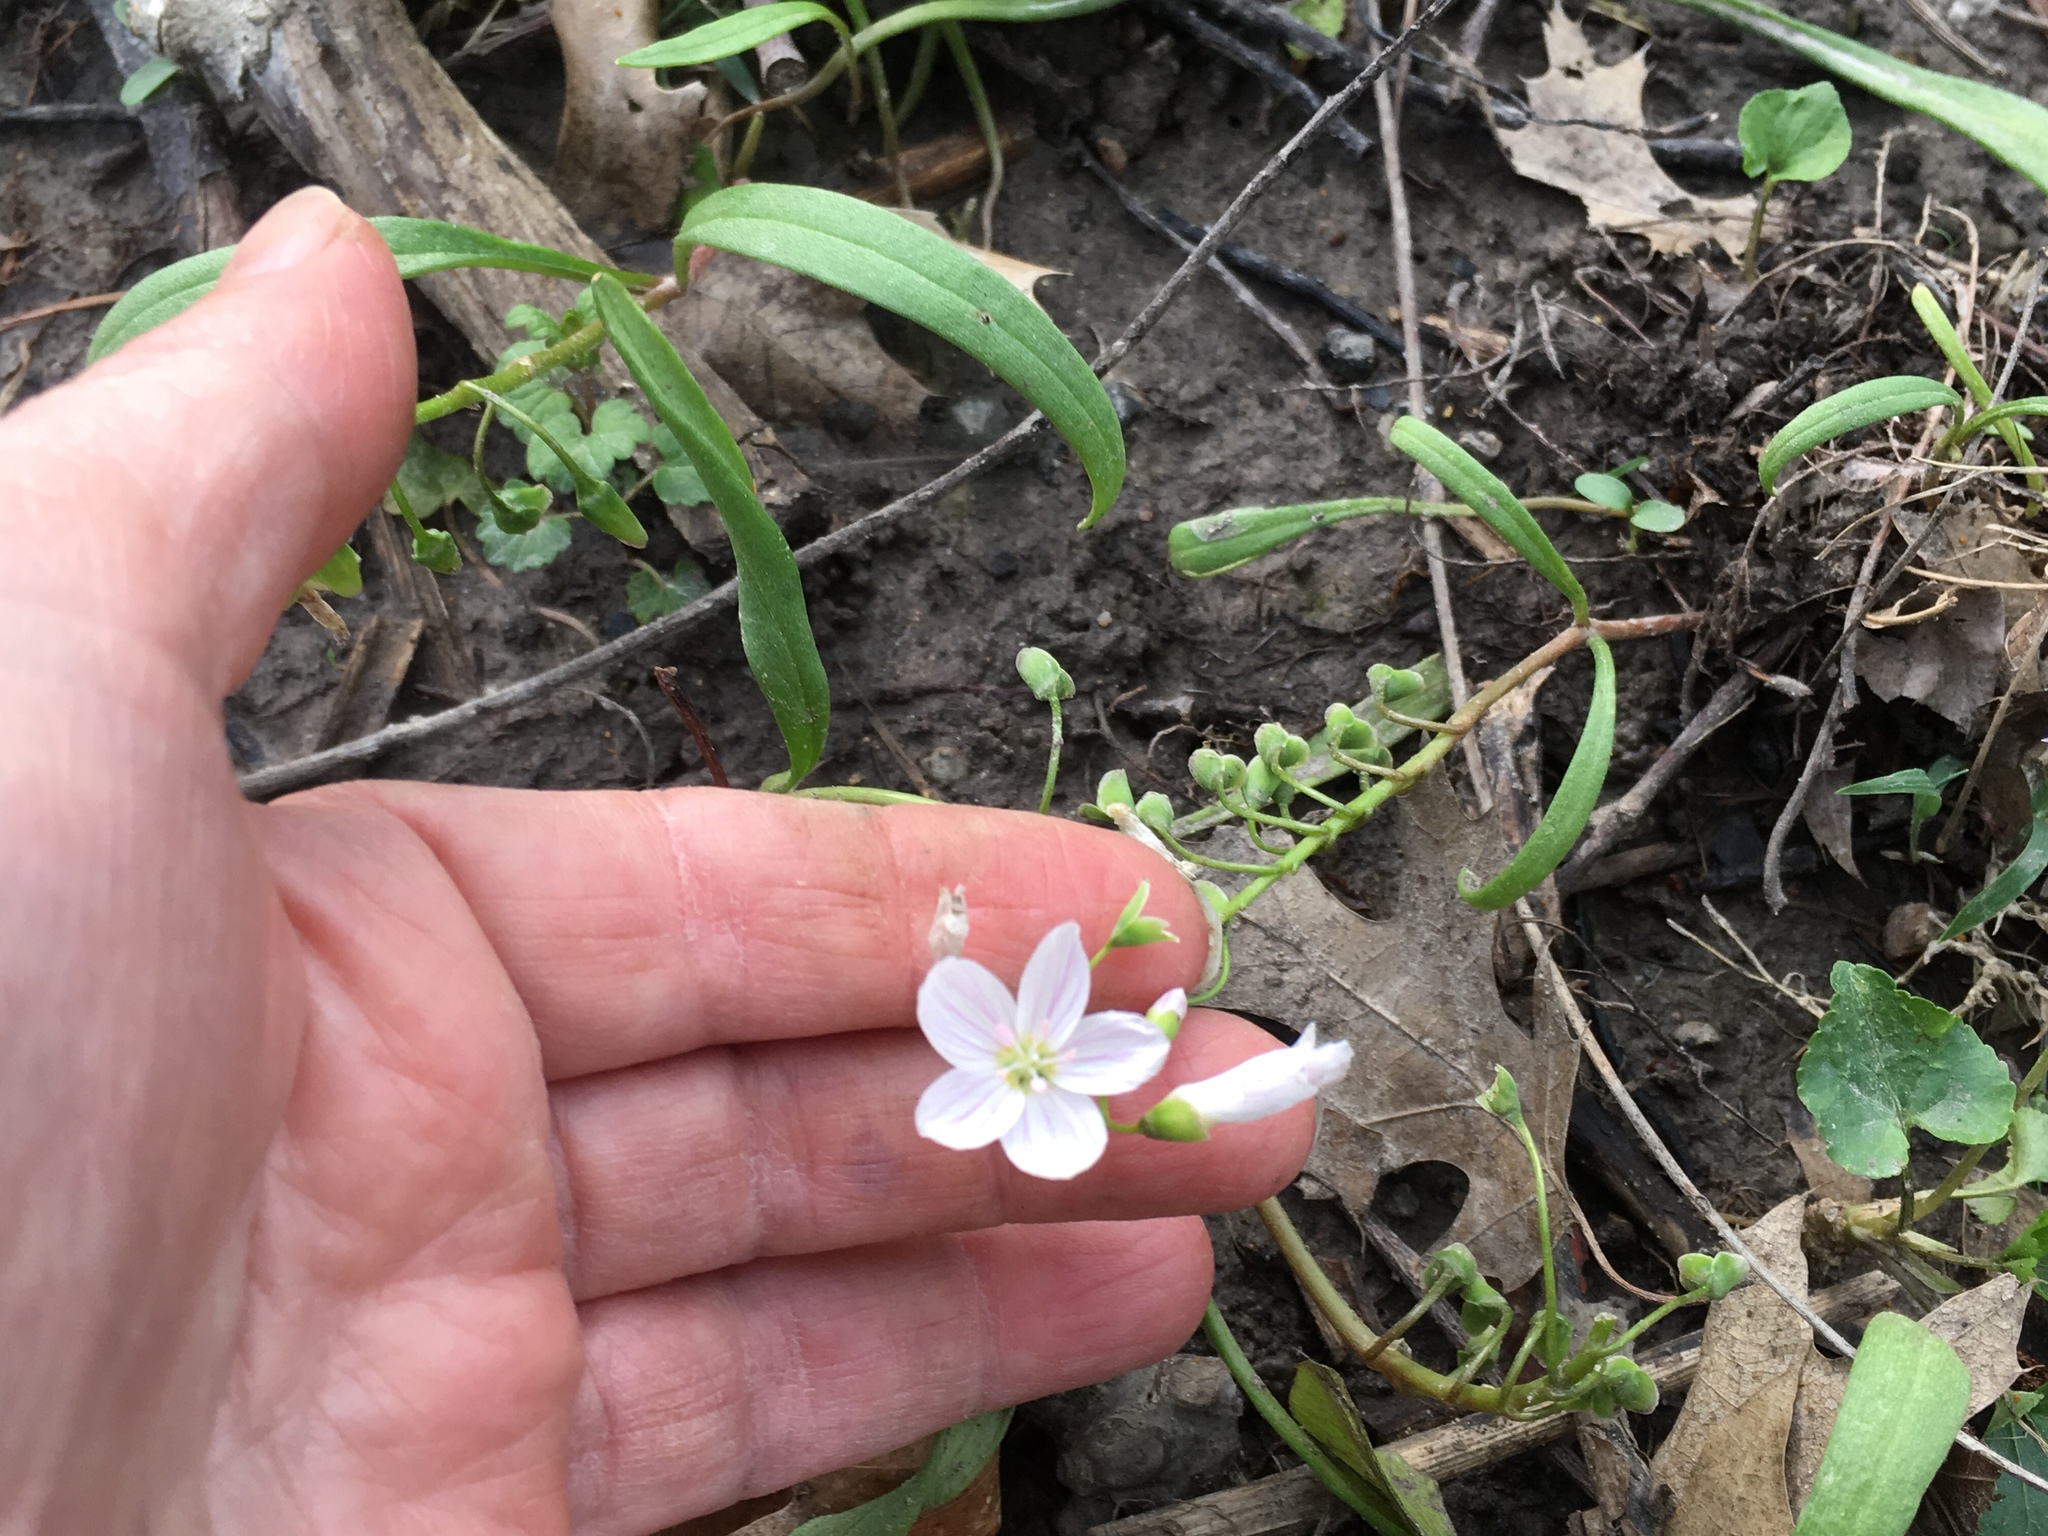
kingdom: Plantae
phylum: Tracheophyta
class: Magnoliopsida
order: Caryophyllales
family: Montiaceae
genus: Claytonia
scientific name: Claytonia virginica
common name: Virginia springbeauty
